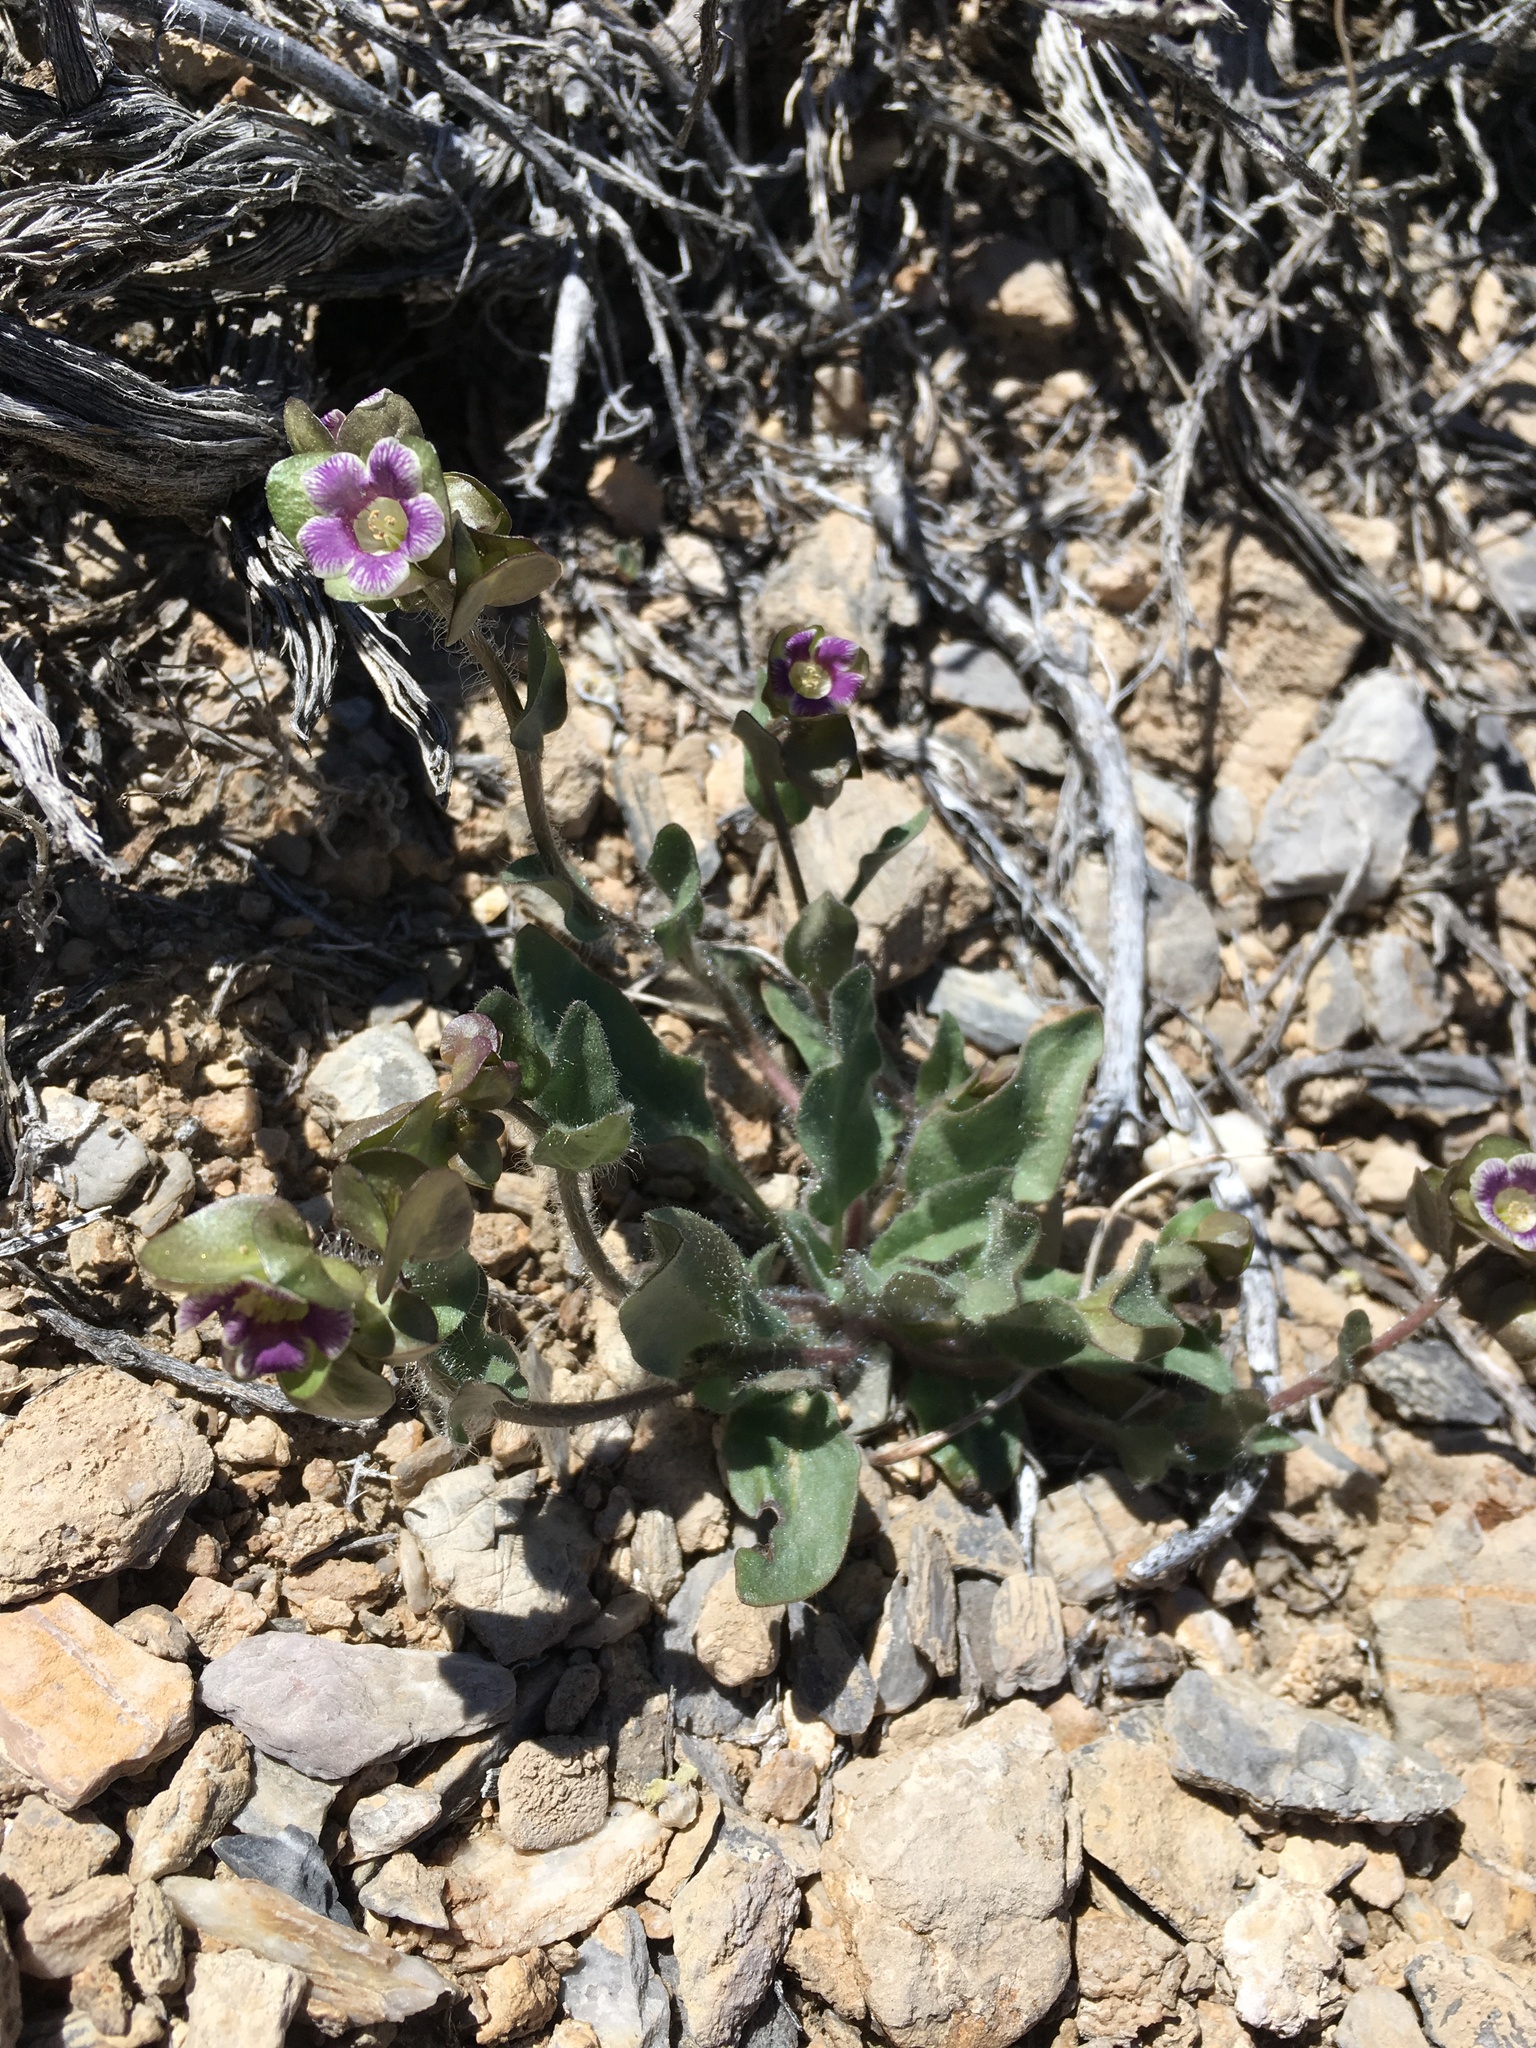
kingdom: Plantae
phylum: Tracheophyta
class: Magnoliopsida
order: Boraginales
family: Hydrophyllaceae
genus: Tricardia
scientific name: Tricardia watsonii
